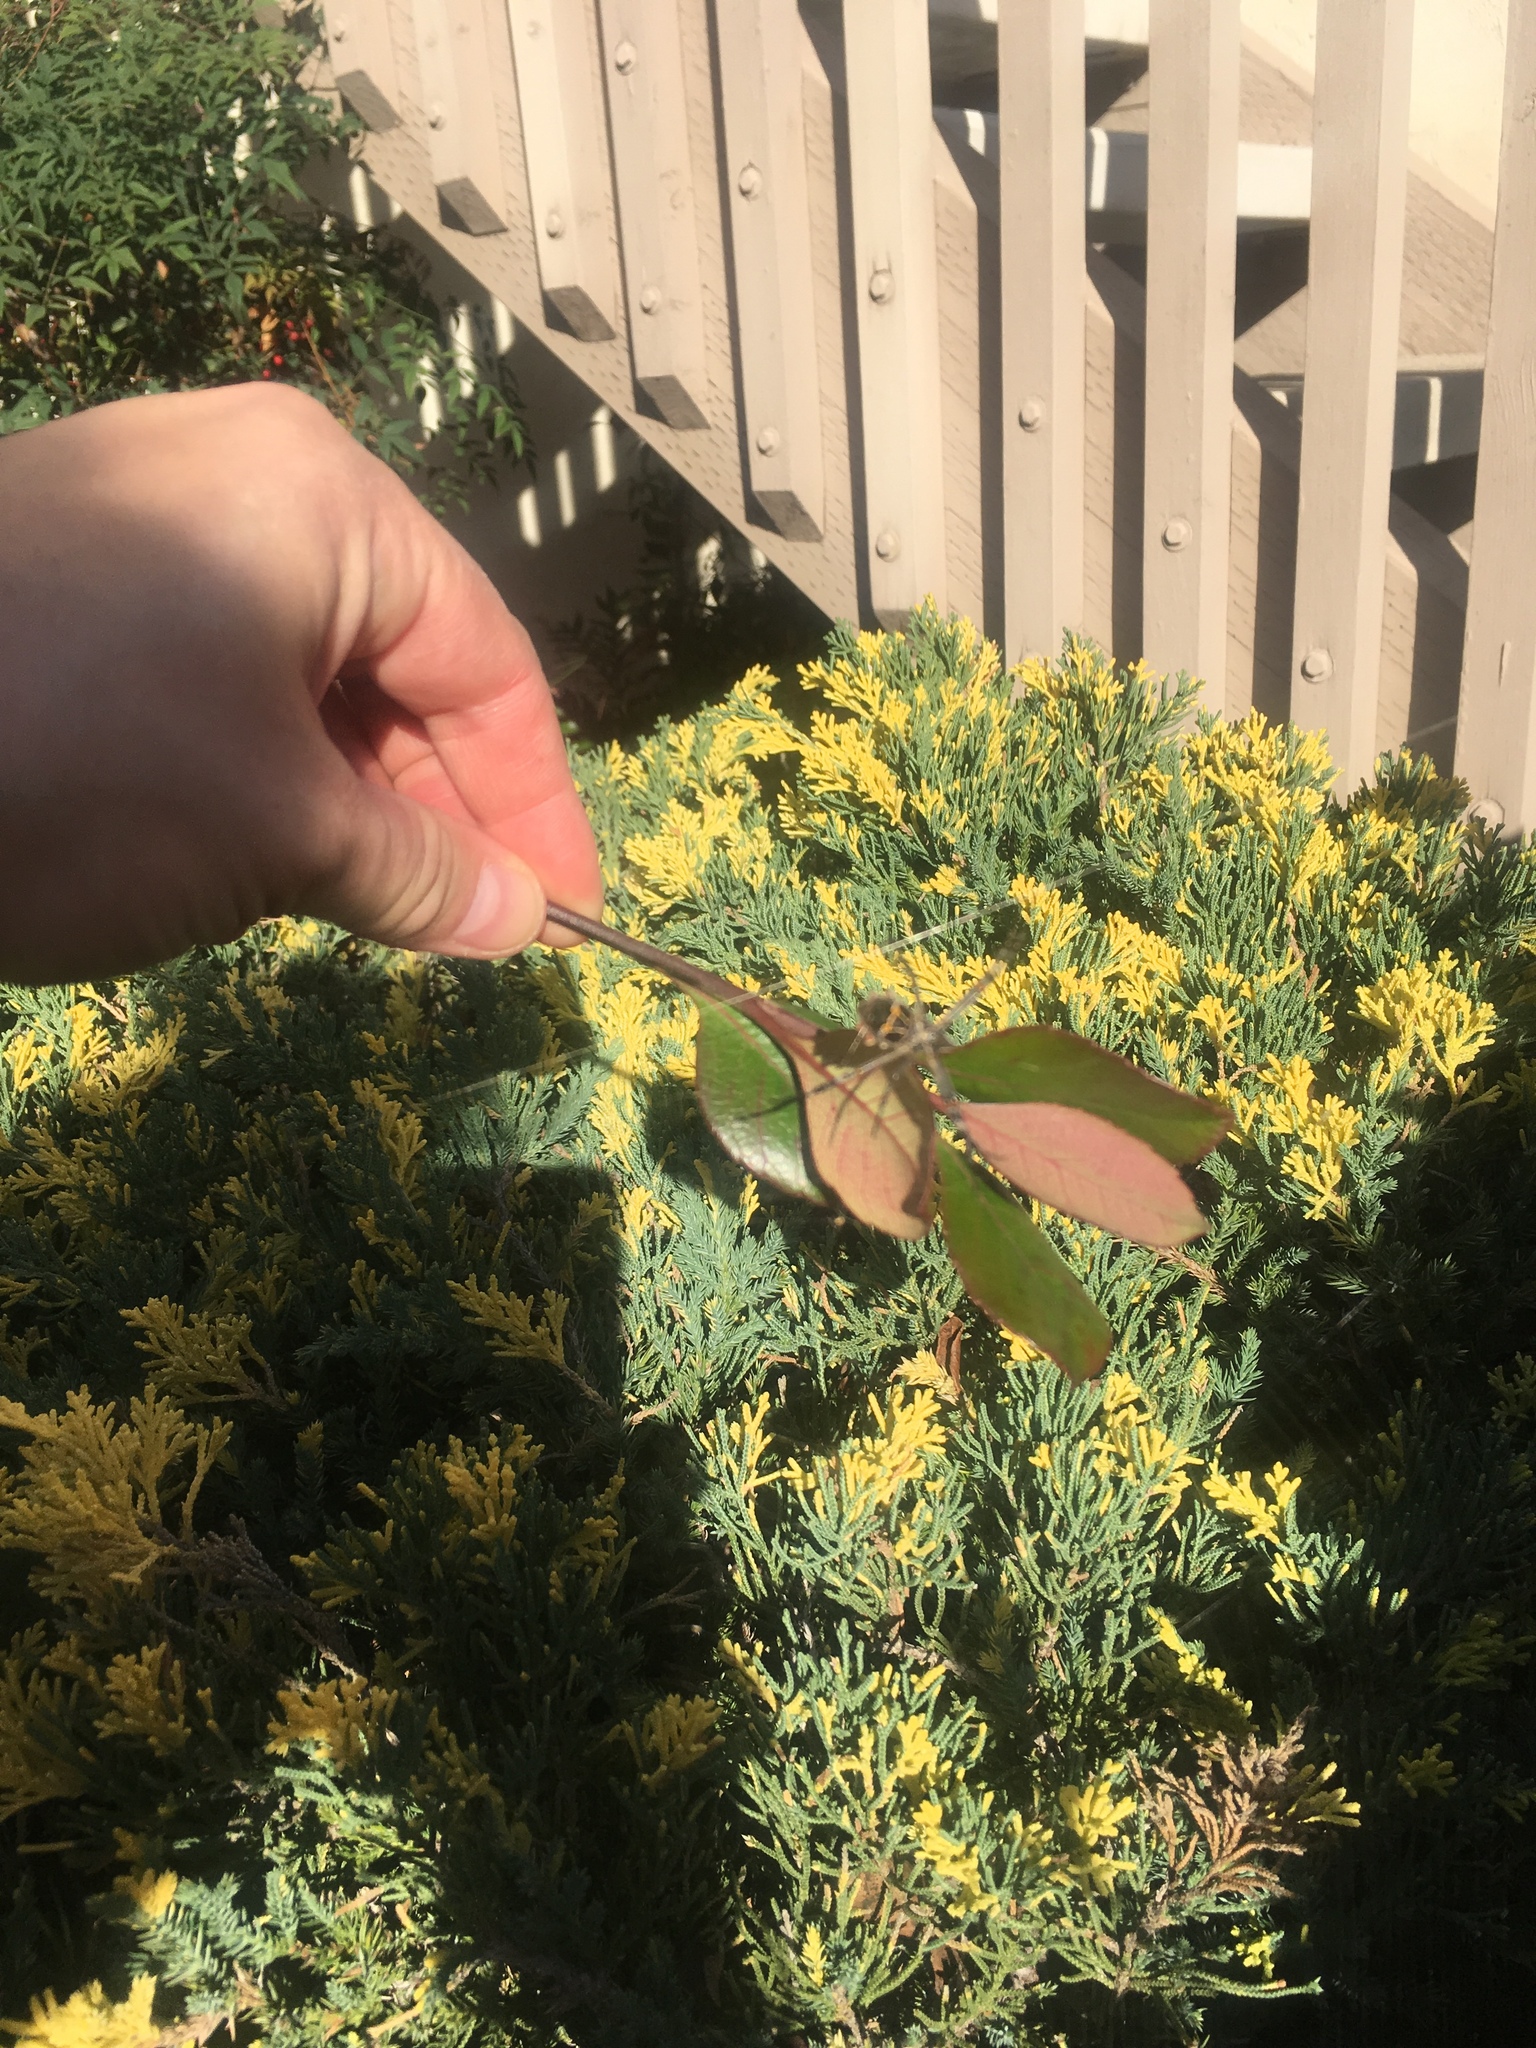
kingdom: Animalia
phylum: Arthropoda
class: Arachnida
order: Araneae
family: Araneidae
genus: Argiope
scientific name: Argiope argentata
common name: Orb weavers
